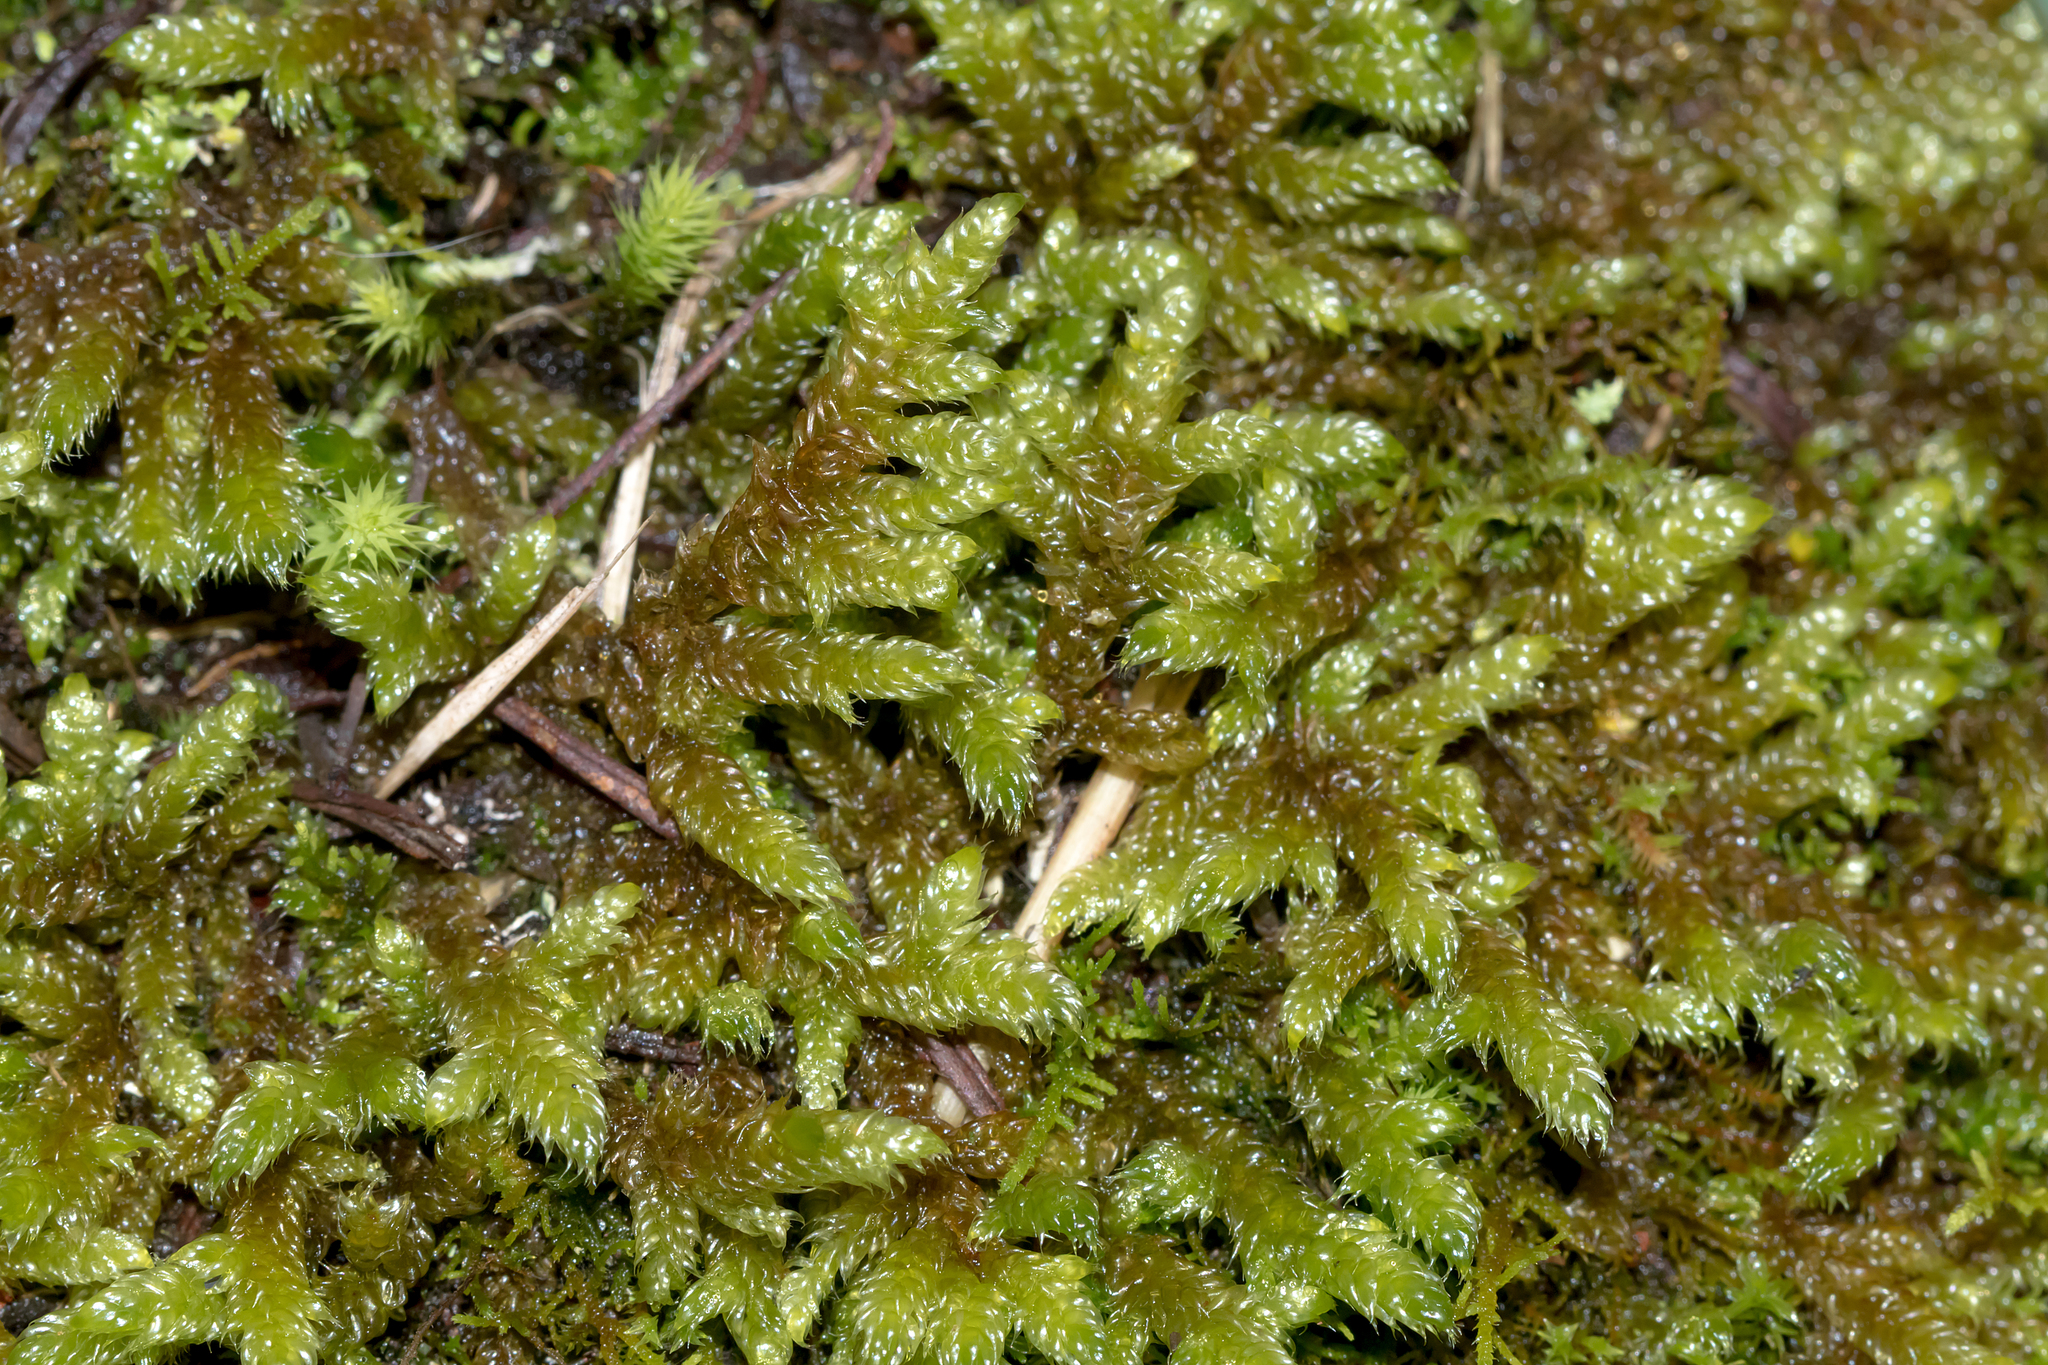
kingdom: Plantae
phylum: Bryophyta
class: Bryopsida
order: Hypnales
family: Hypnaceae
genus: Hypnum
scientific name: Hypnum cupressiforme
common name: Cypress-leaved plait-moss
